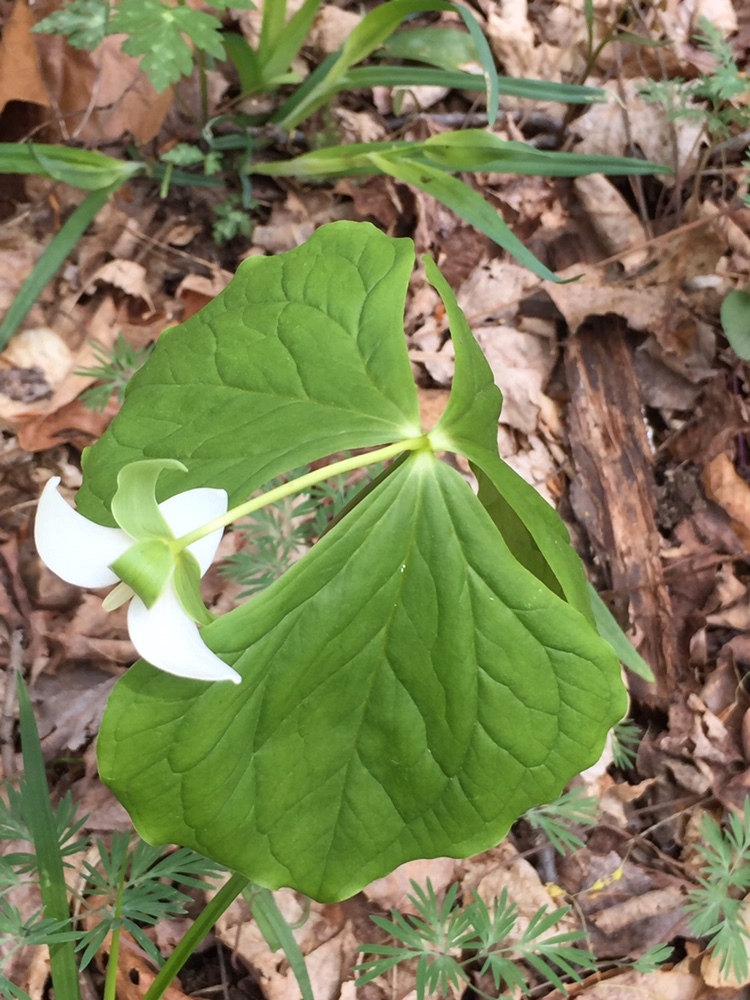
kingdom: Plantae
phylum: Tracheophyta
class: Liliopsida
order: Liliales
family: Melanthiaceae
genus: Trillium
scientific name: Trillium flexipes
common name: Drooping trillium
